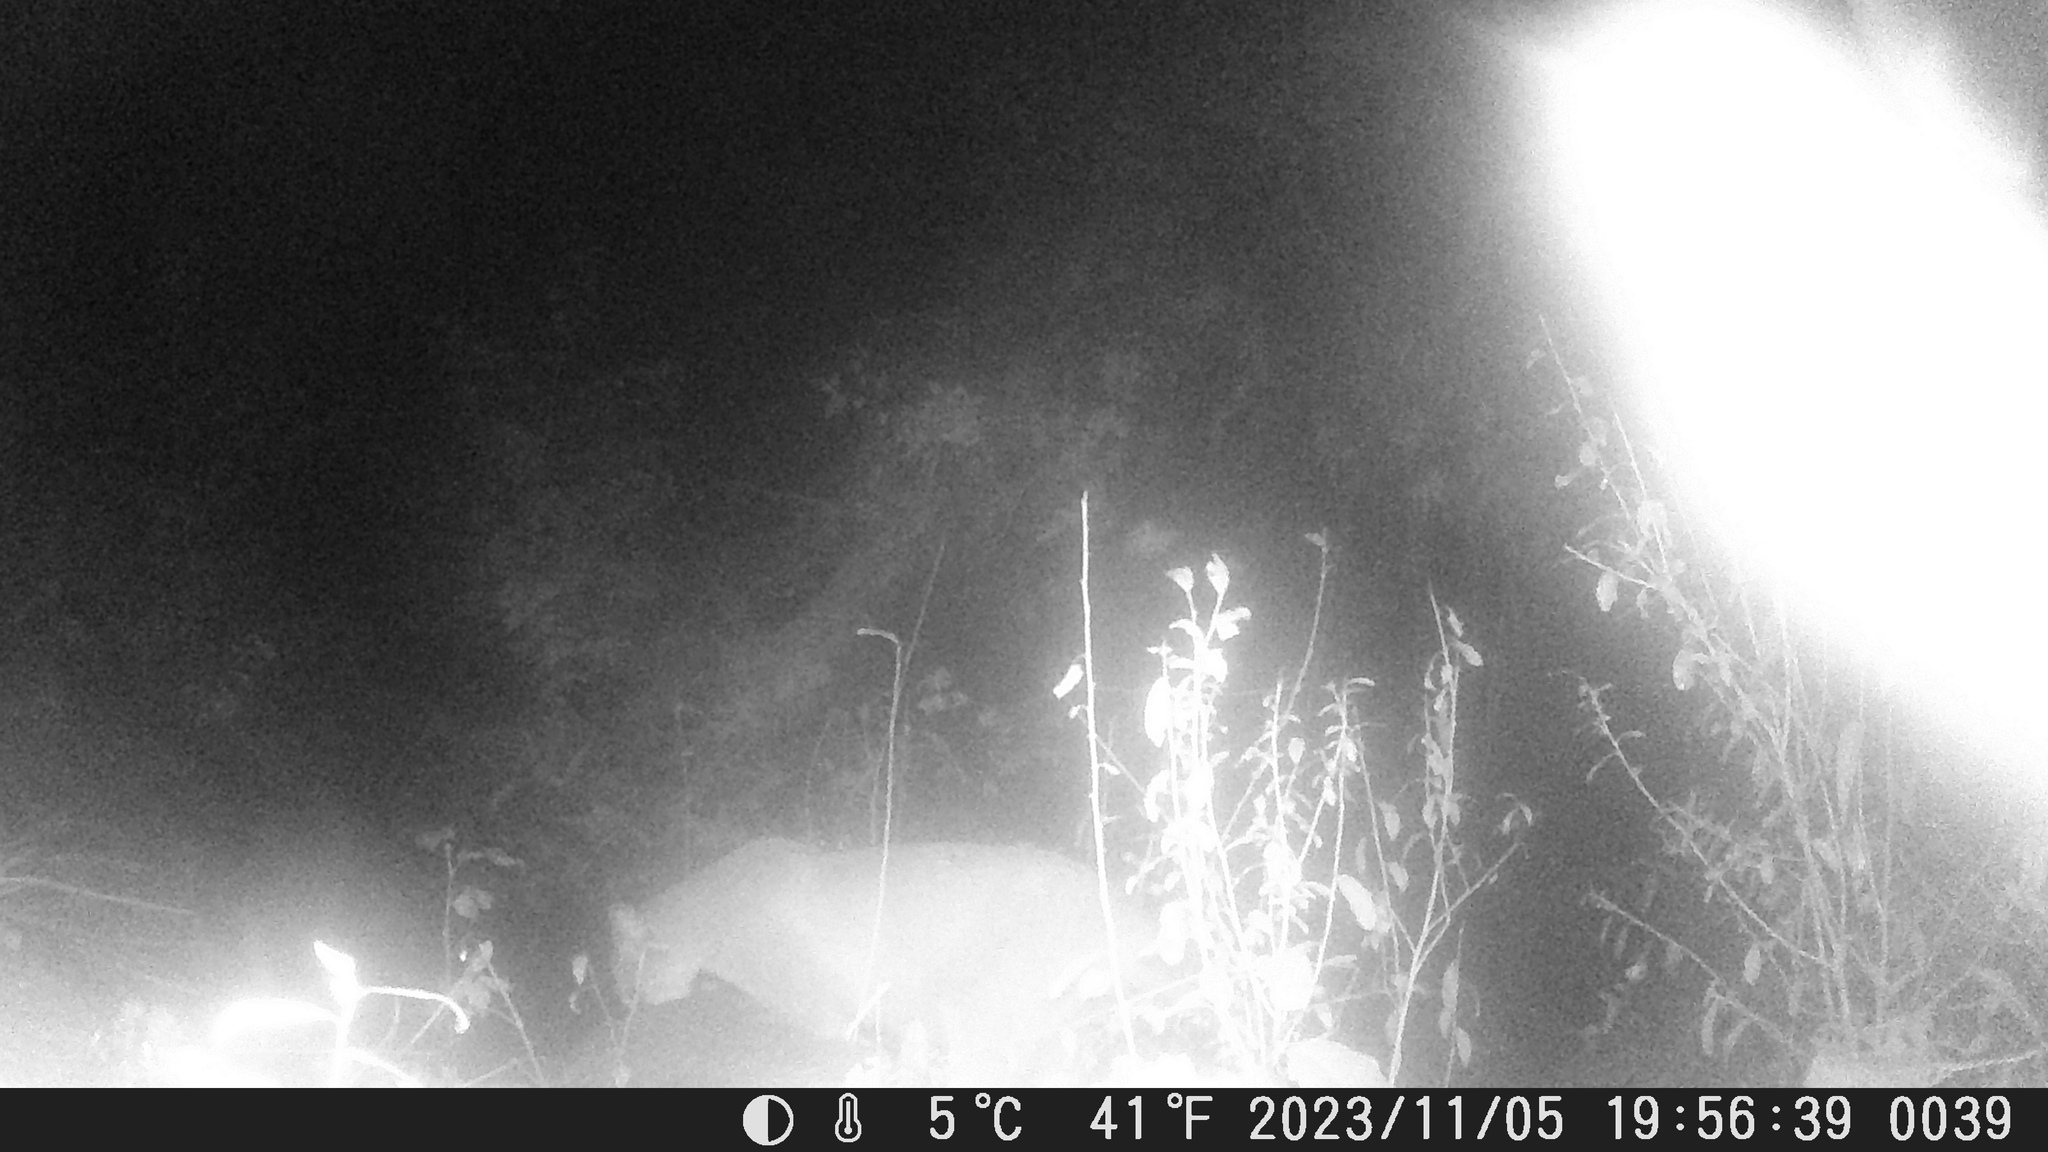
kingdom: Animalia
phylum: Chordata
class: Mammalia
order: Carnivora
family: Felidae
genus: Puma
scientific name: Puma concolor
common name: Puma
